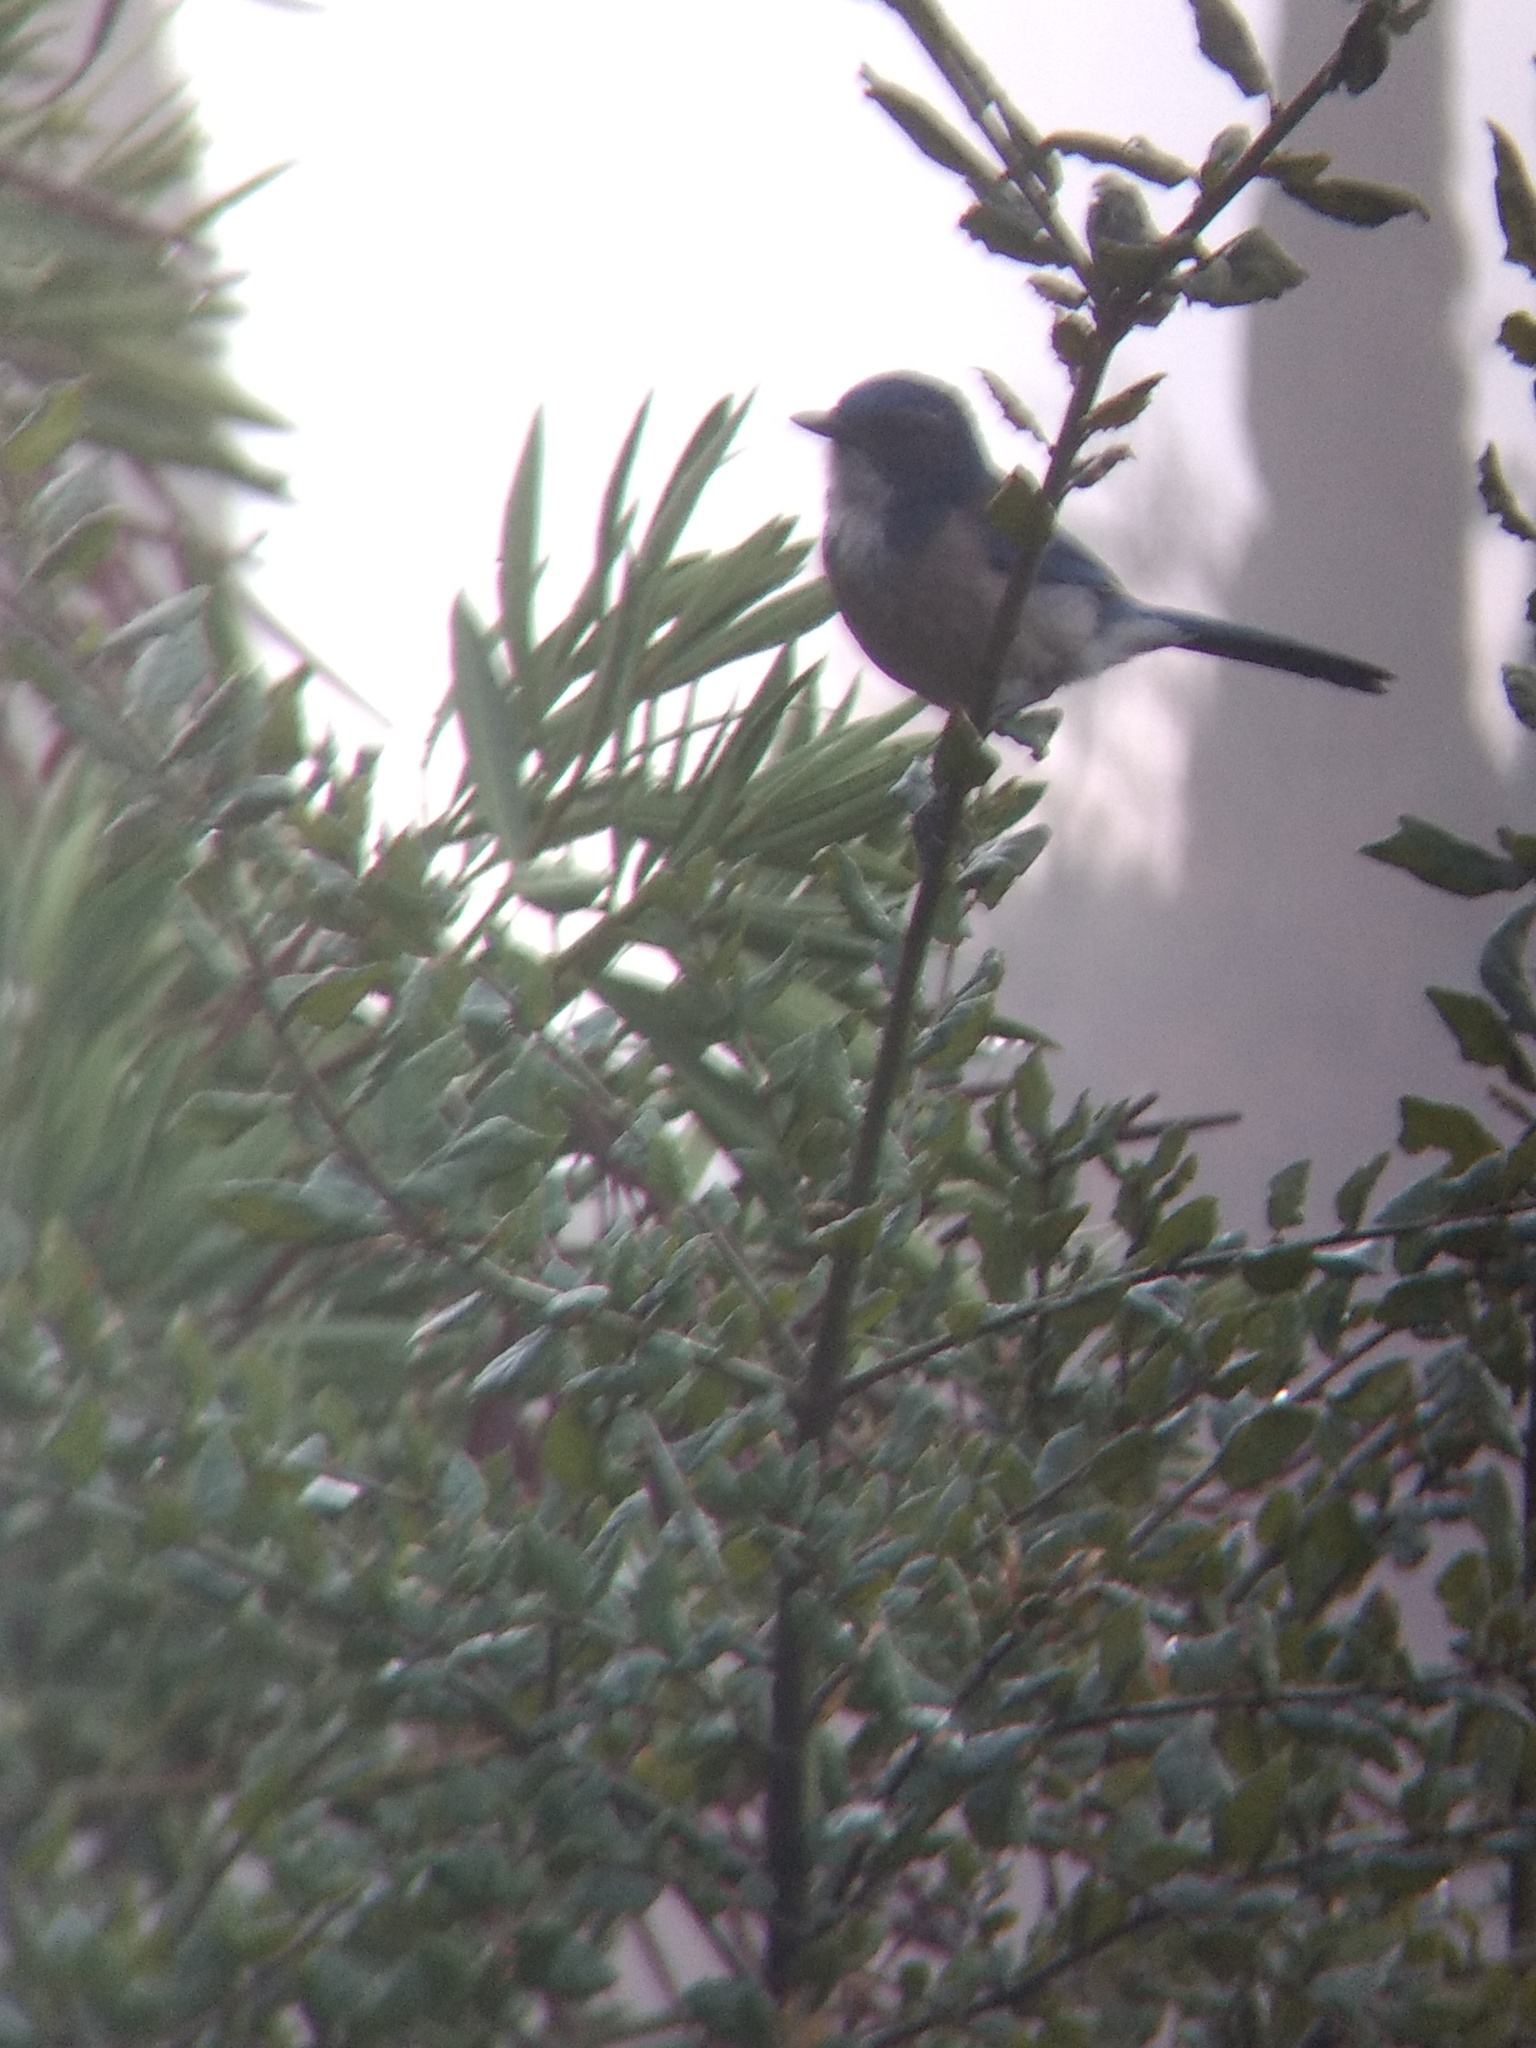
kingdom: Animalia
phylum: Chordata
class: Aves
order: Passeriformes
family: Corvidae
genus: Aphelocoma
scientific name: Aphelocoma californica
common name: California scrub-jay
